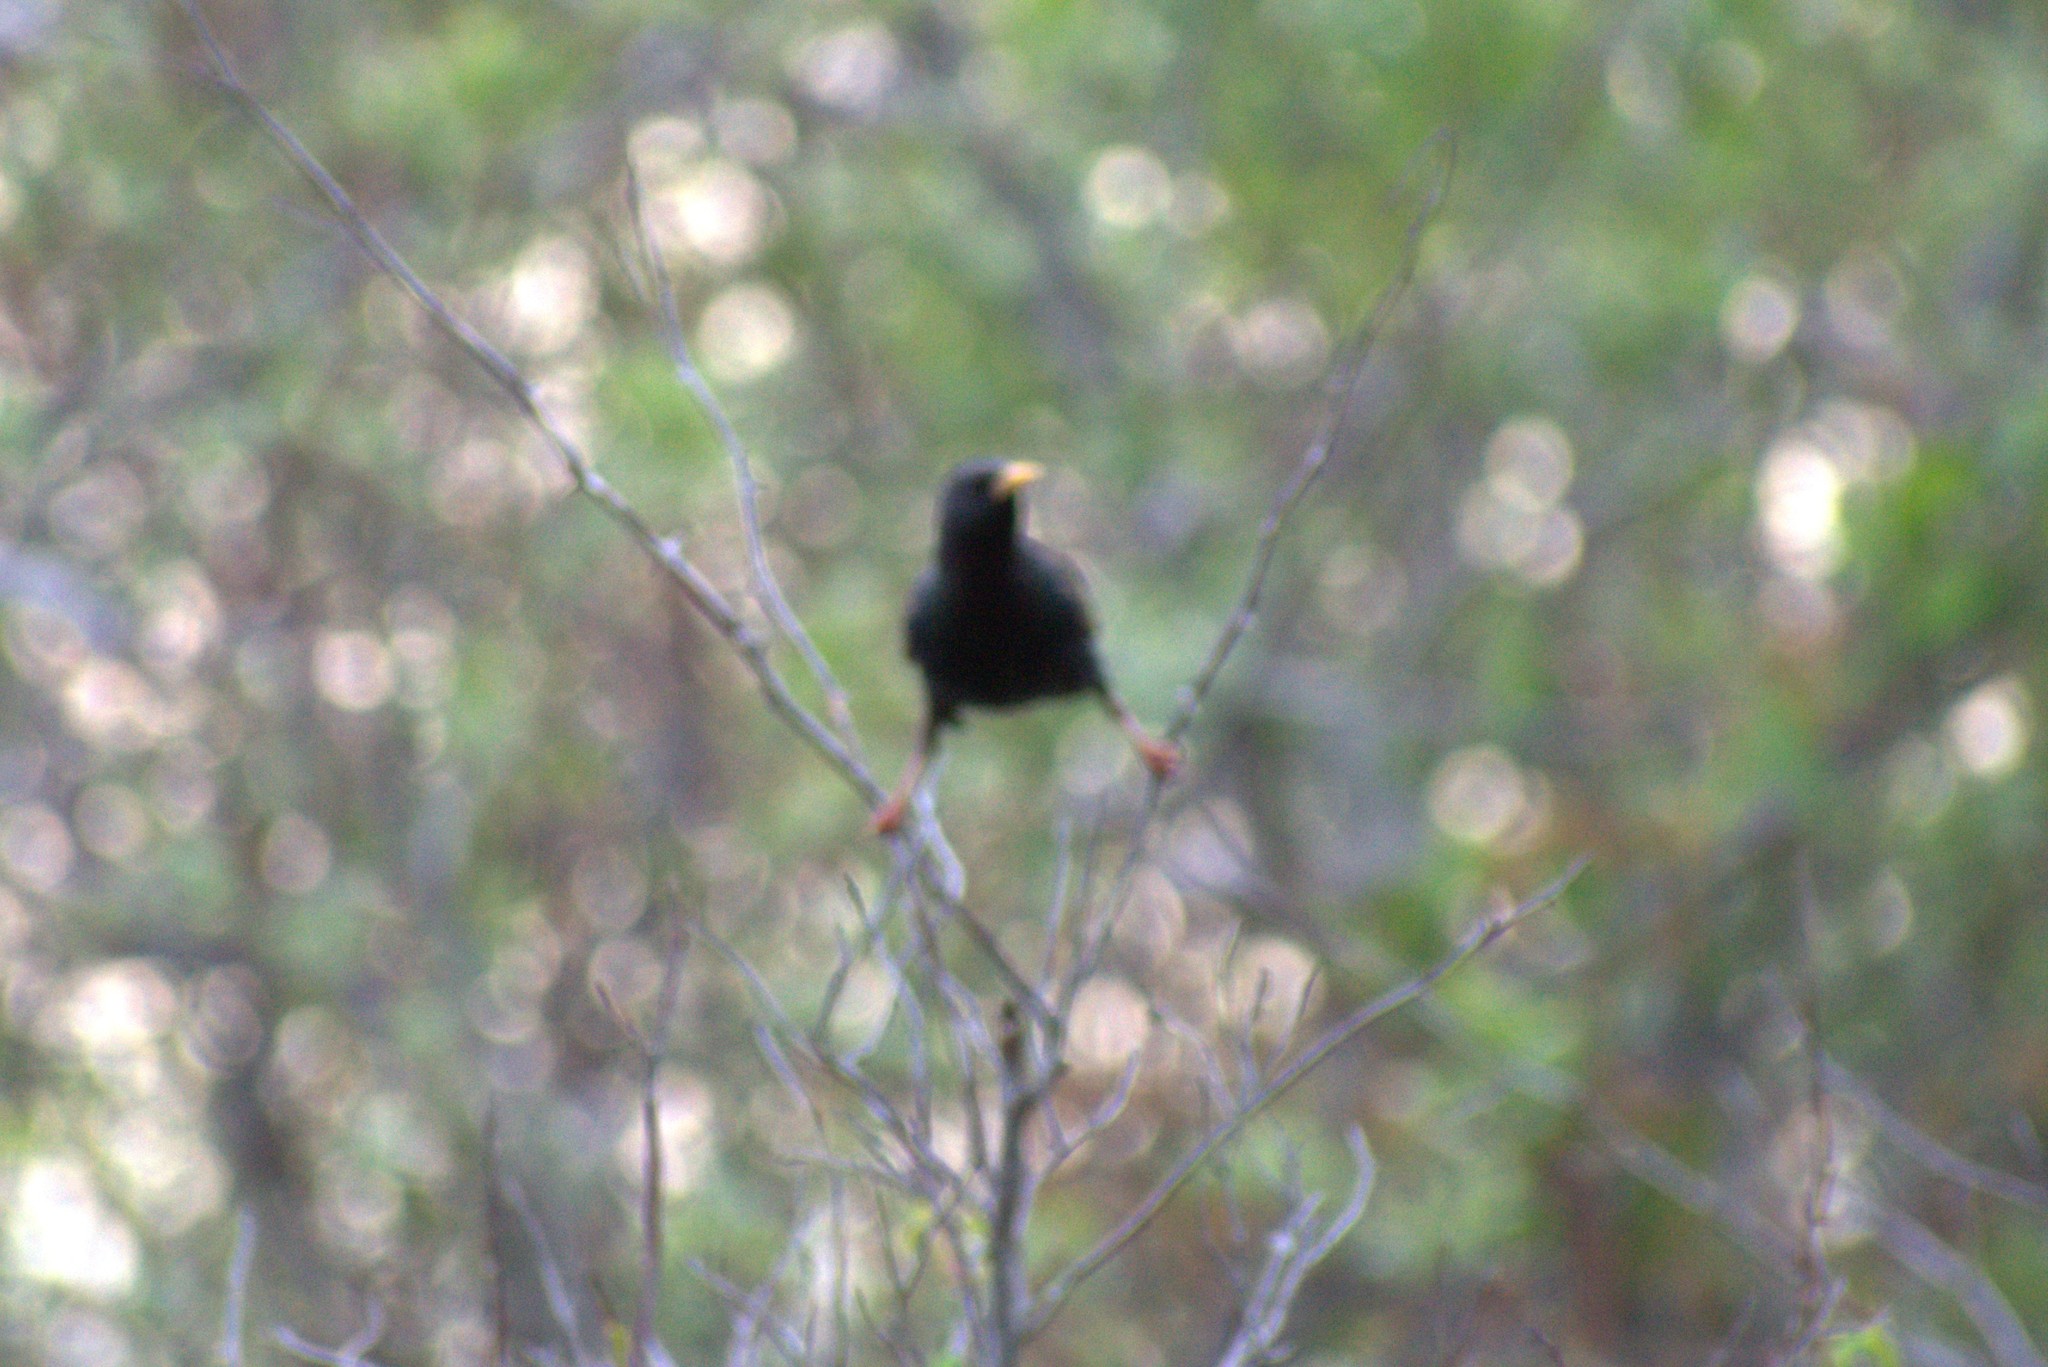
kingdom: Animalia
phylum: Chordata
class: Aves
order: Passeriformes
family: Sturnidae
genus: Sturnus
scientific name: Sturnus vulgaris
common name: Common starling
